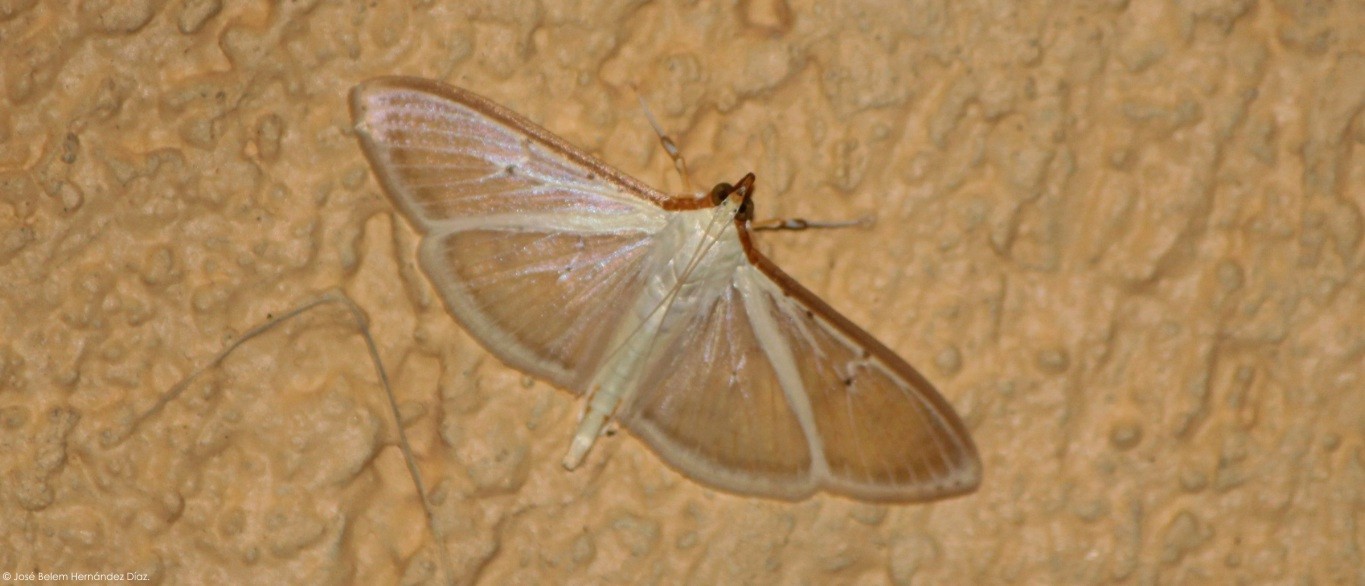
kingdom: Animalia
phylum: Arthropoda
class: Insecta
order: Lepidoptera
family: Crambidae
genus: Palpita
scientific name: Palpita quadristigmalis
